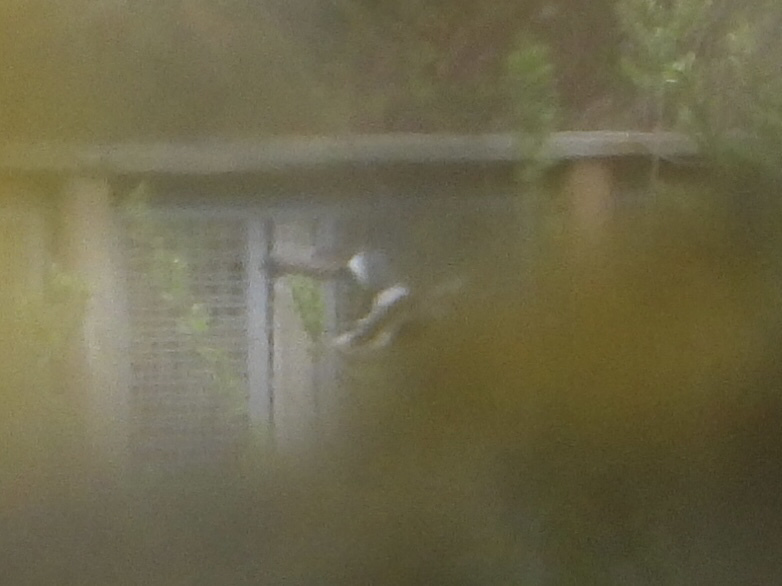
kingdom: Animalia
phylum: Chordata
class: Aves
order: Anseriformes
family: Anatidae
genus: Spatula
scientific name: Spatula clypeata
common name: Northern shoveler
